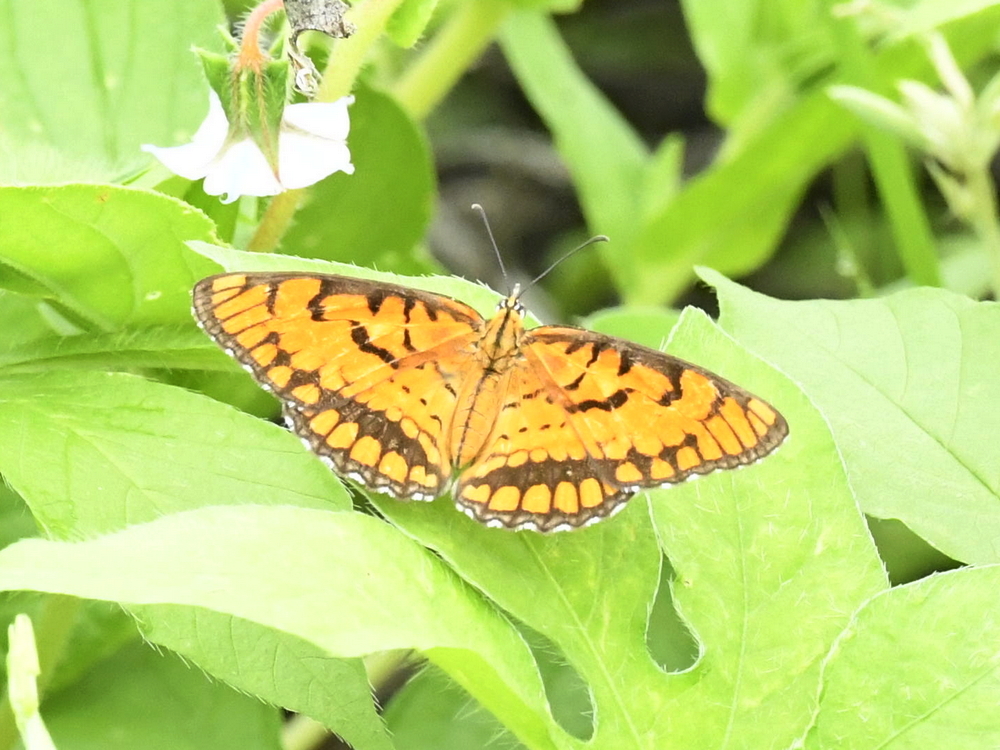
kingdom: Animalia
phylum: Arthropoda
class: Insecta
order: Lepidoptera
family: Nymphalidae
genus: Byblia
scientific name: Byblia ilithyia
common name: Spotted joker
